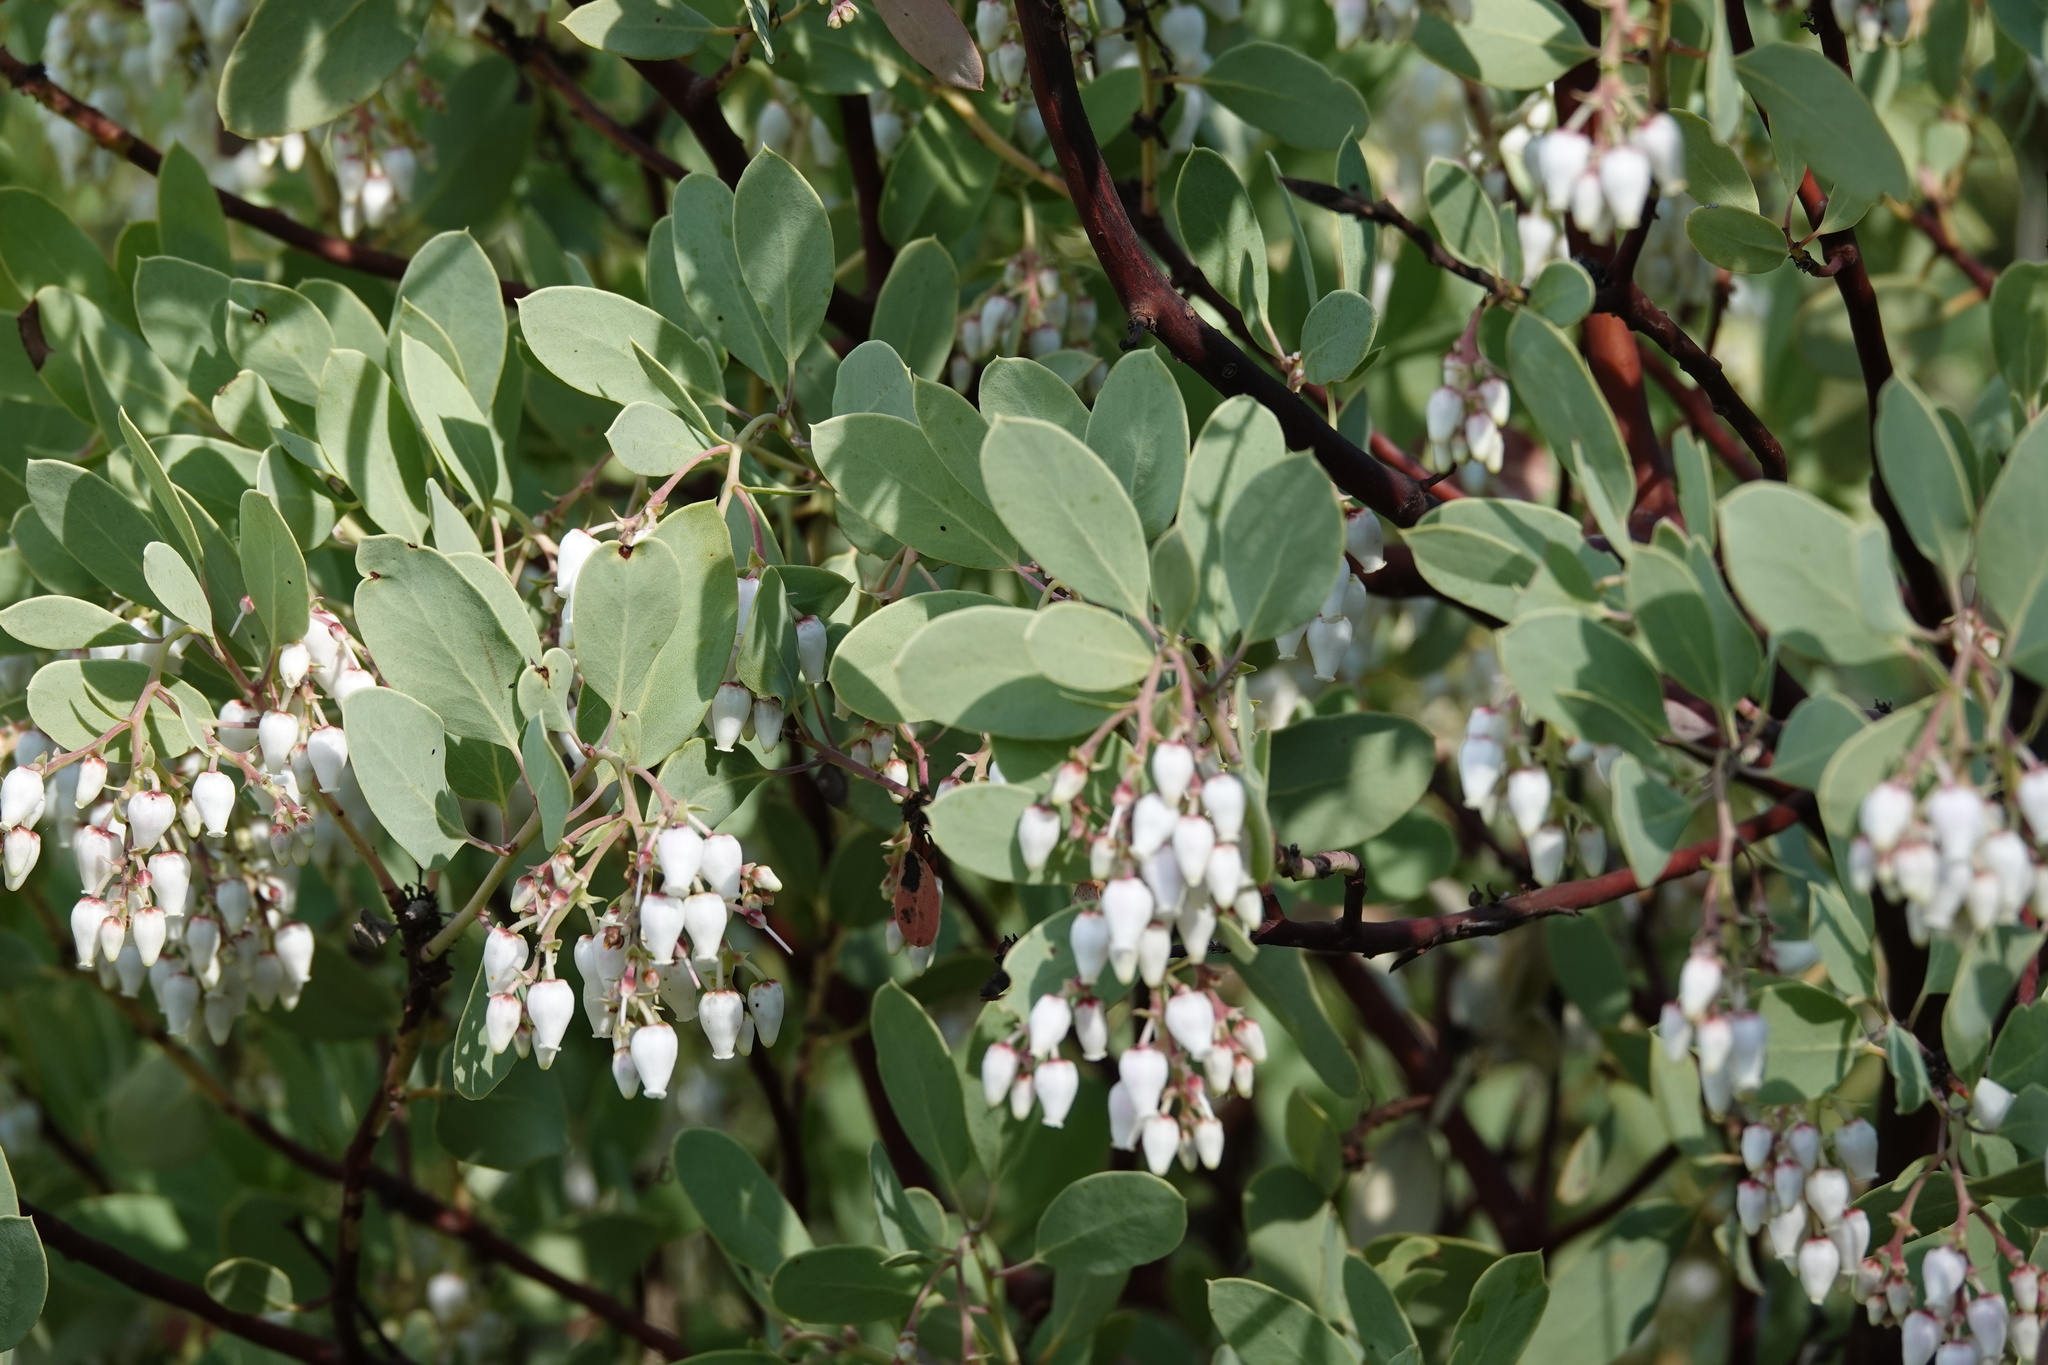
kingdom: Plantae
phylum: Tracheophyta
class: Magnoliopsida
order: Ericales
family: Ericaceae
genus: Arctostaphylos
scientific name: Arctostaphylos glauca
